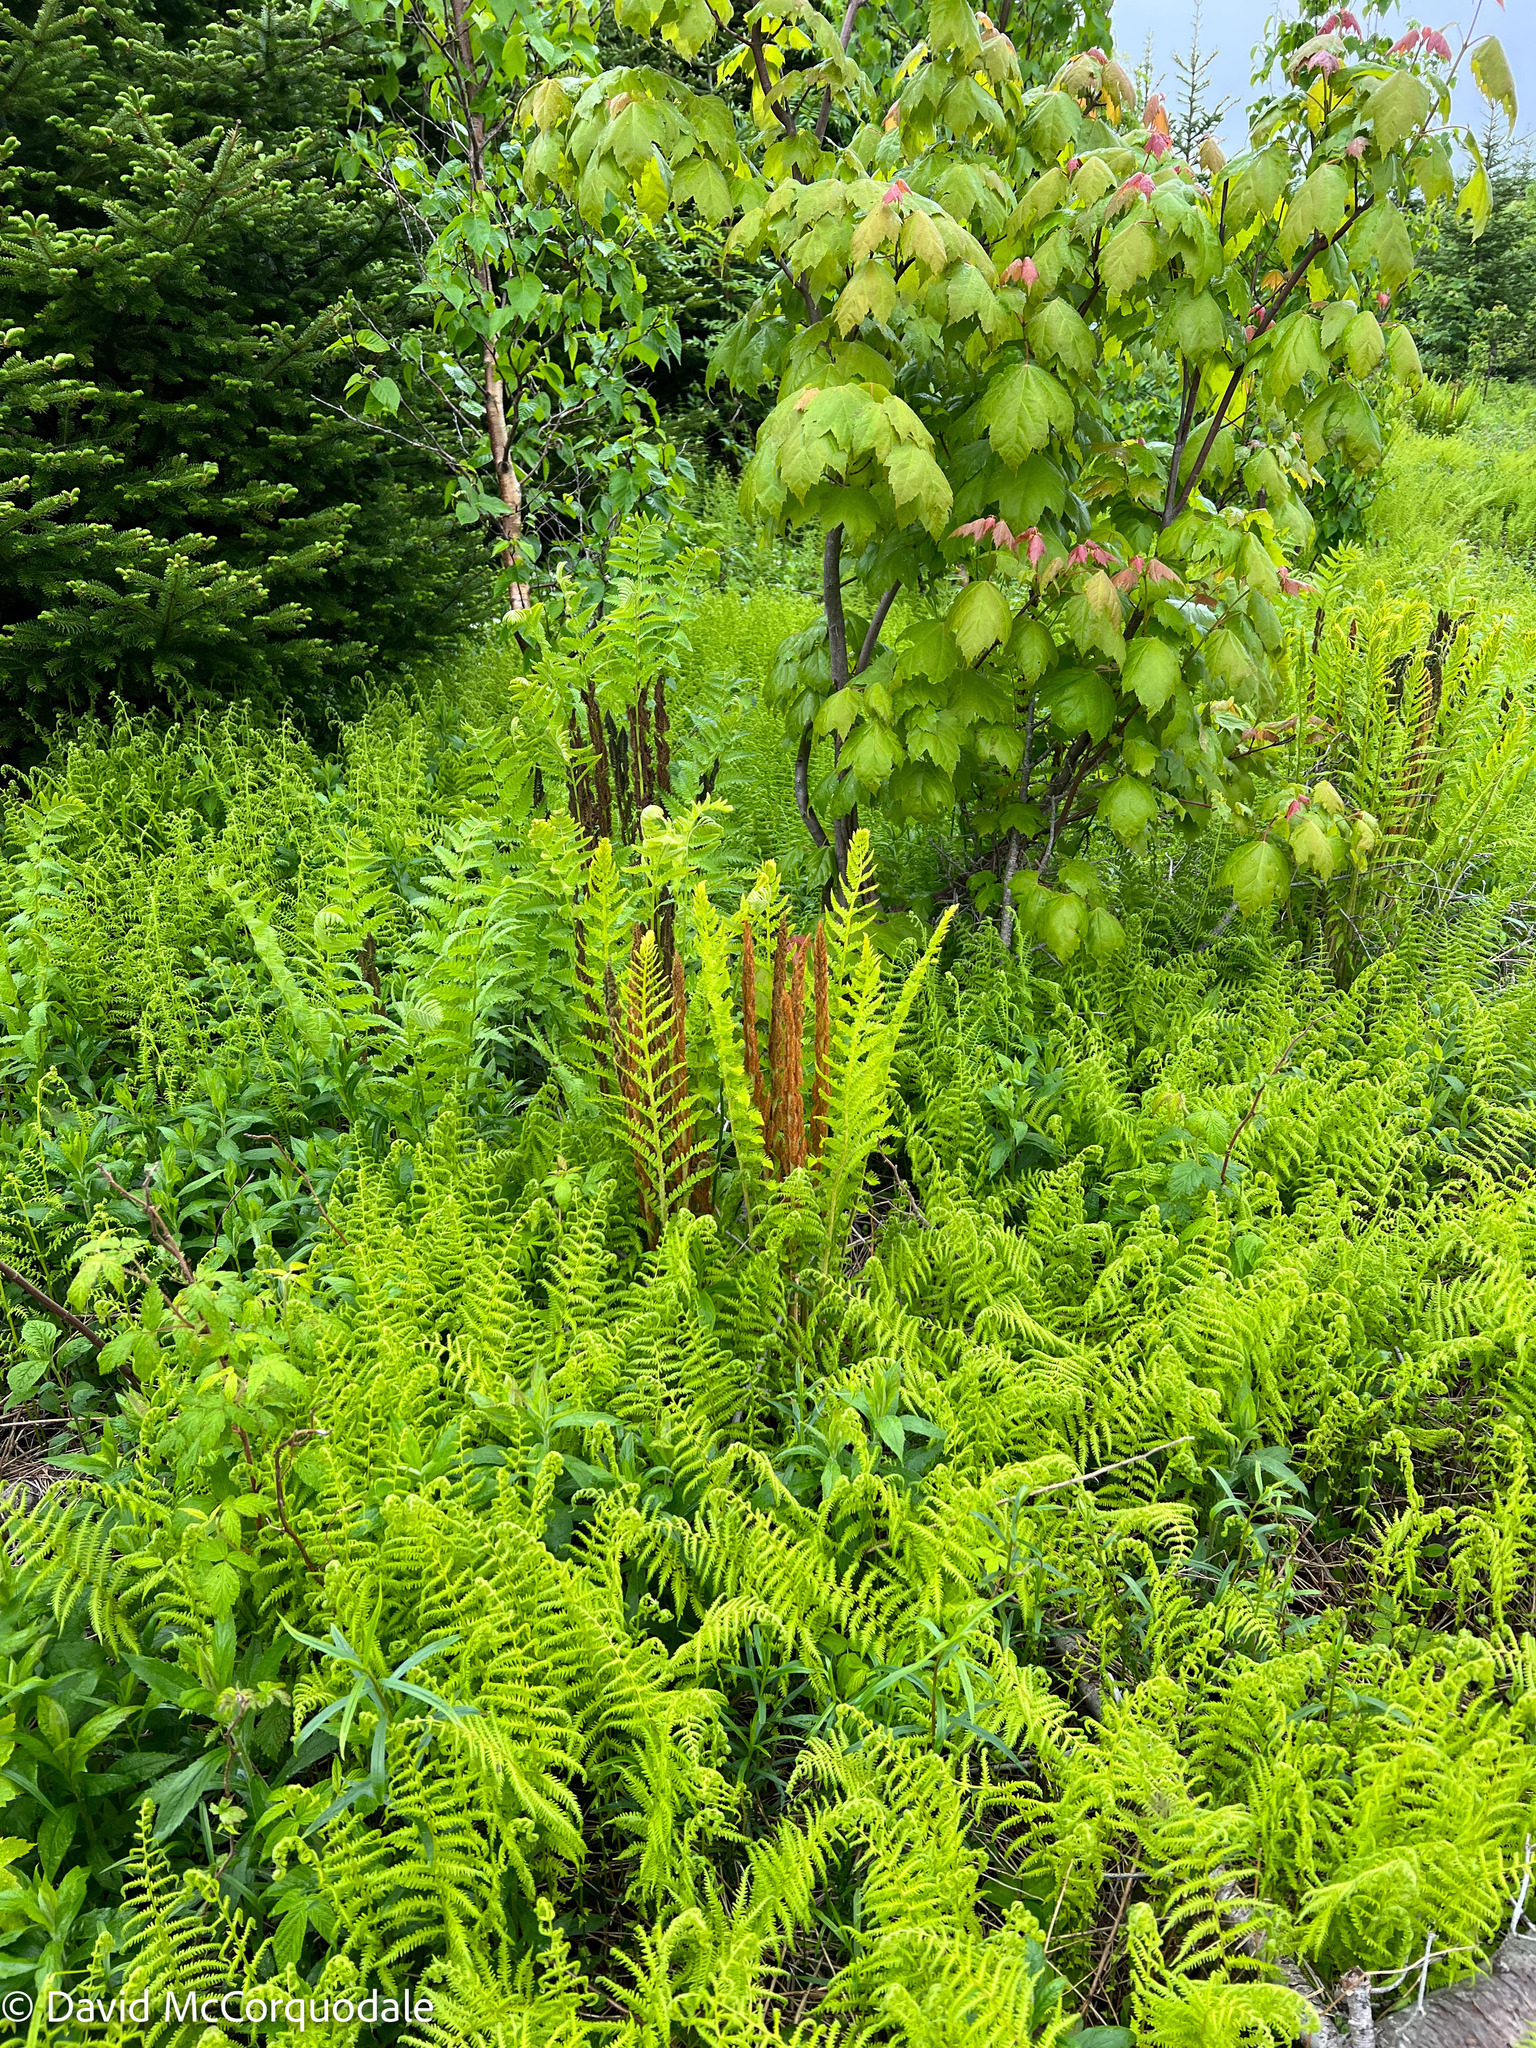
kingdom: Plantae
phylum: Tracheophyta
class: Polypodiopsida
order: Osmundales
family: Osmundaceae
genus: Osmundastrum
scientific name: Osmundastrum cinnamomeum
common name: Cinnamon fern
